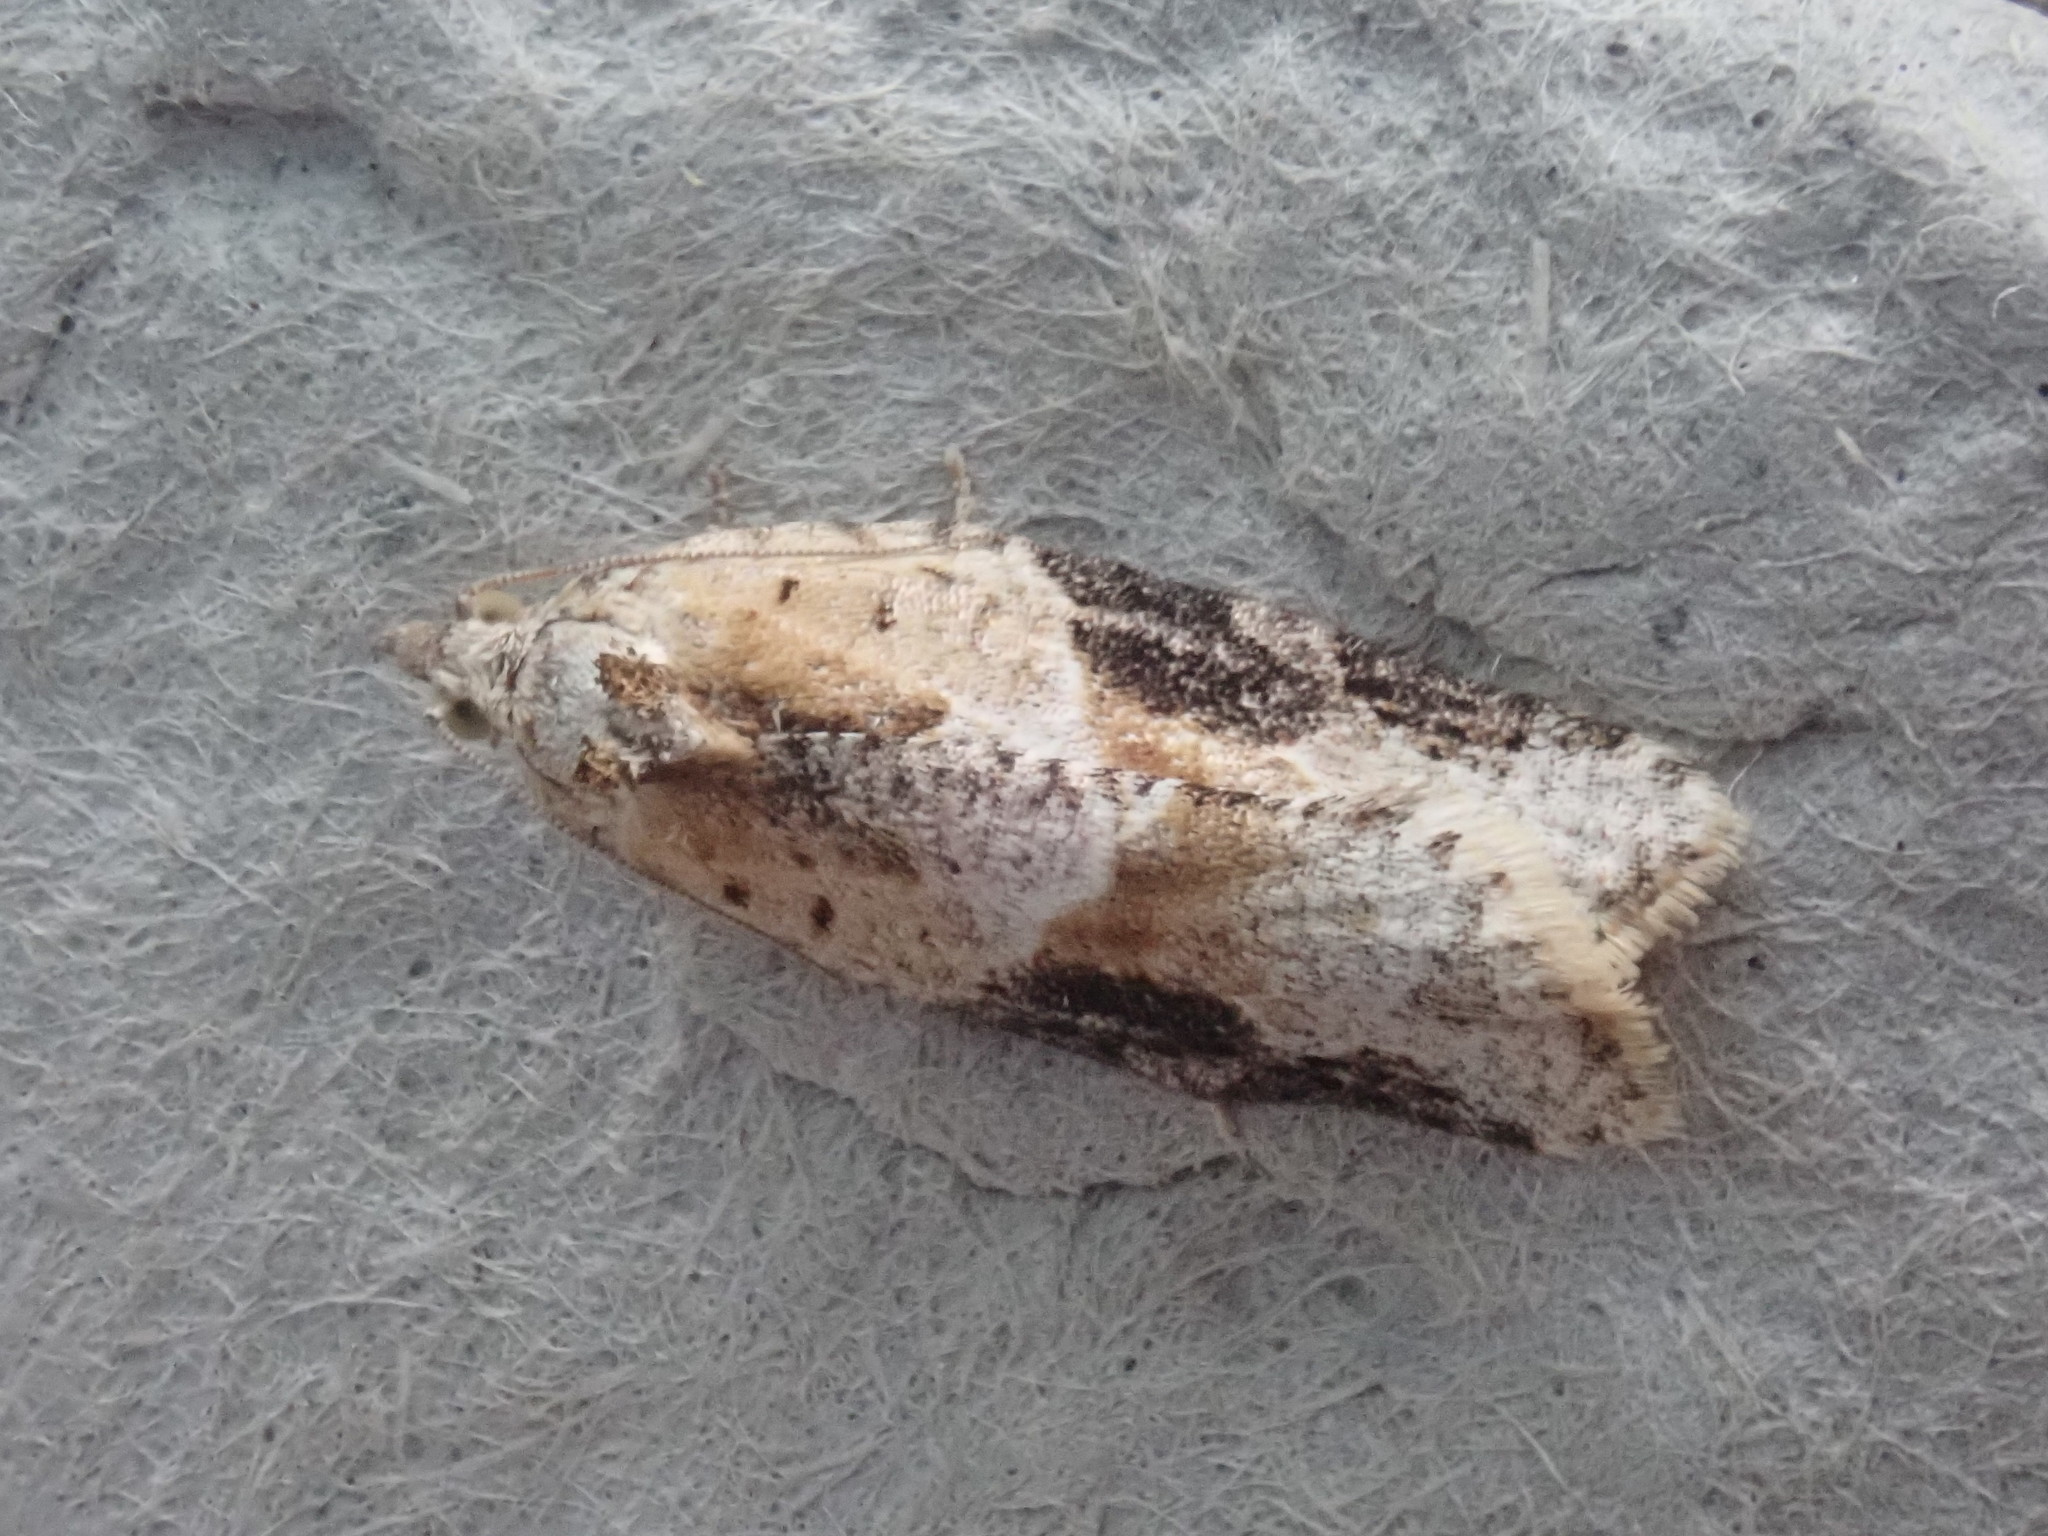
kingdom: Animalia
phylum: Arthropoda
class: Insecta
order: Lepidoptera
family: Tortricidae
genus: Argyrotaenia
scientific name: Argyrotaenia mariana
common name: Gray-banded leafroller moth
